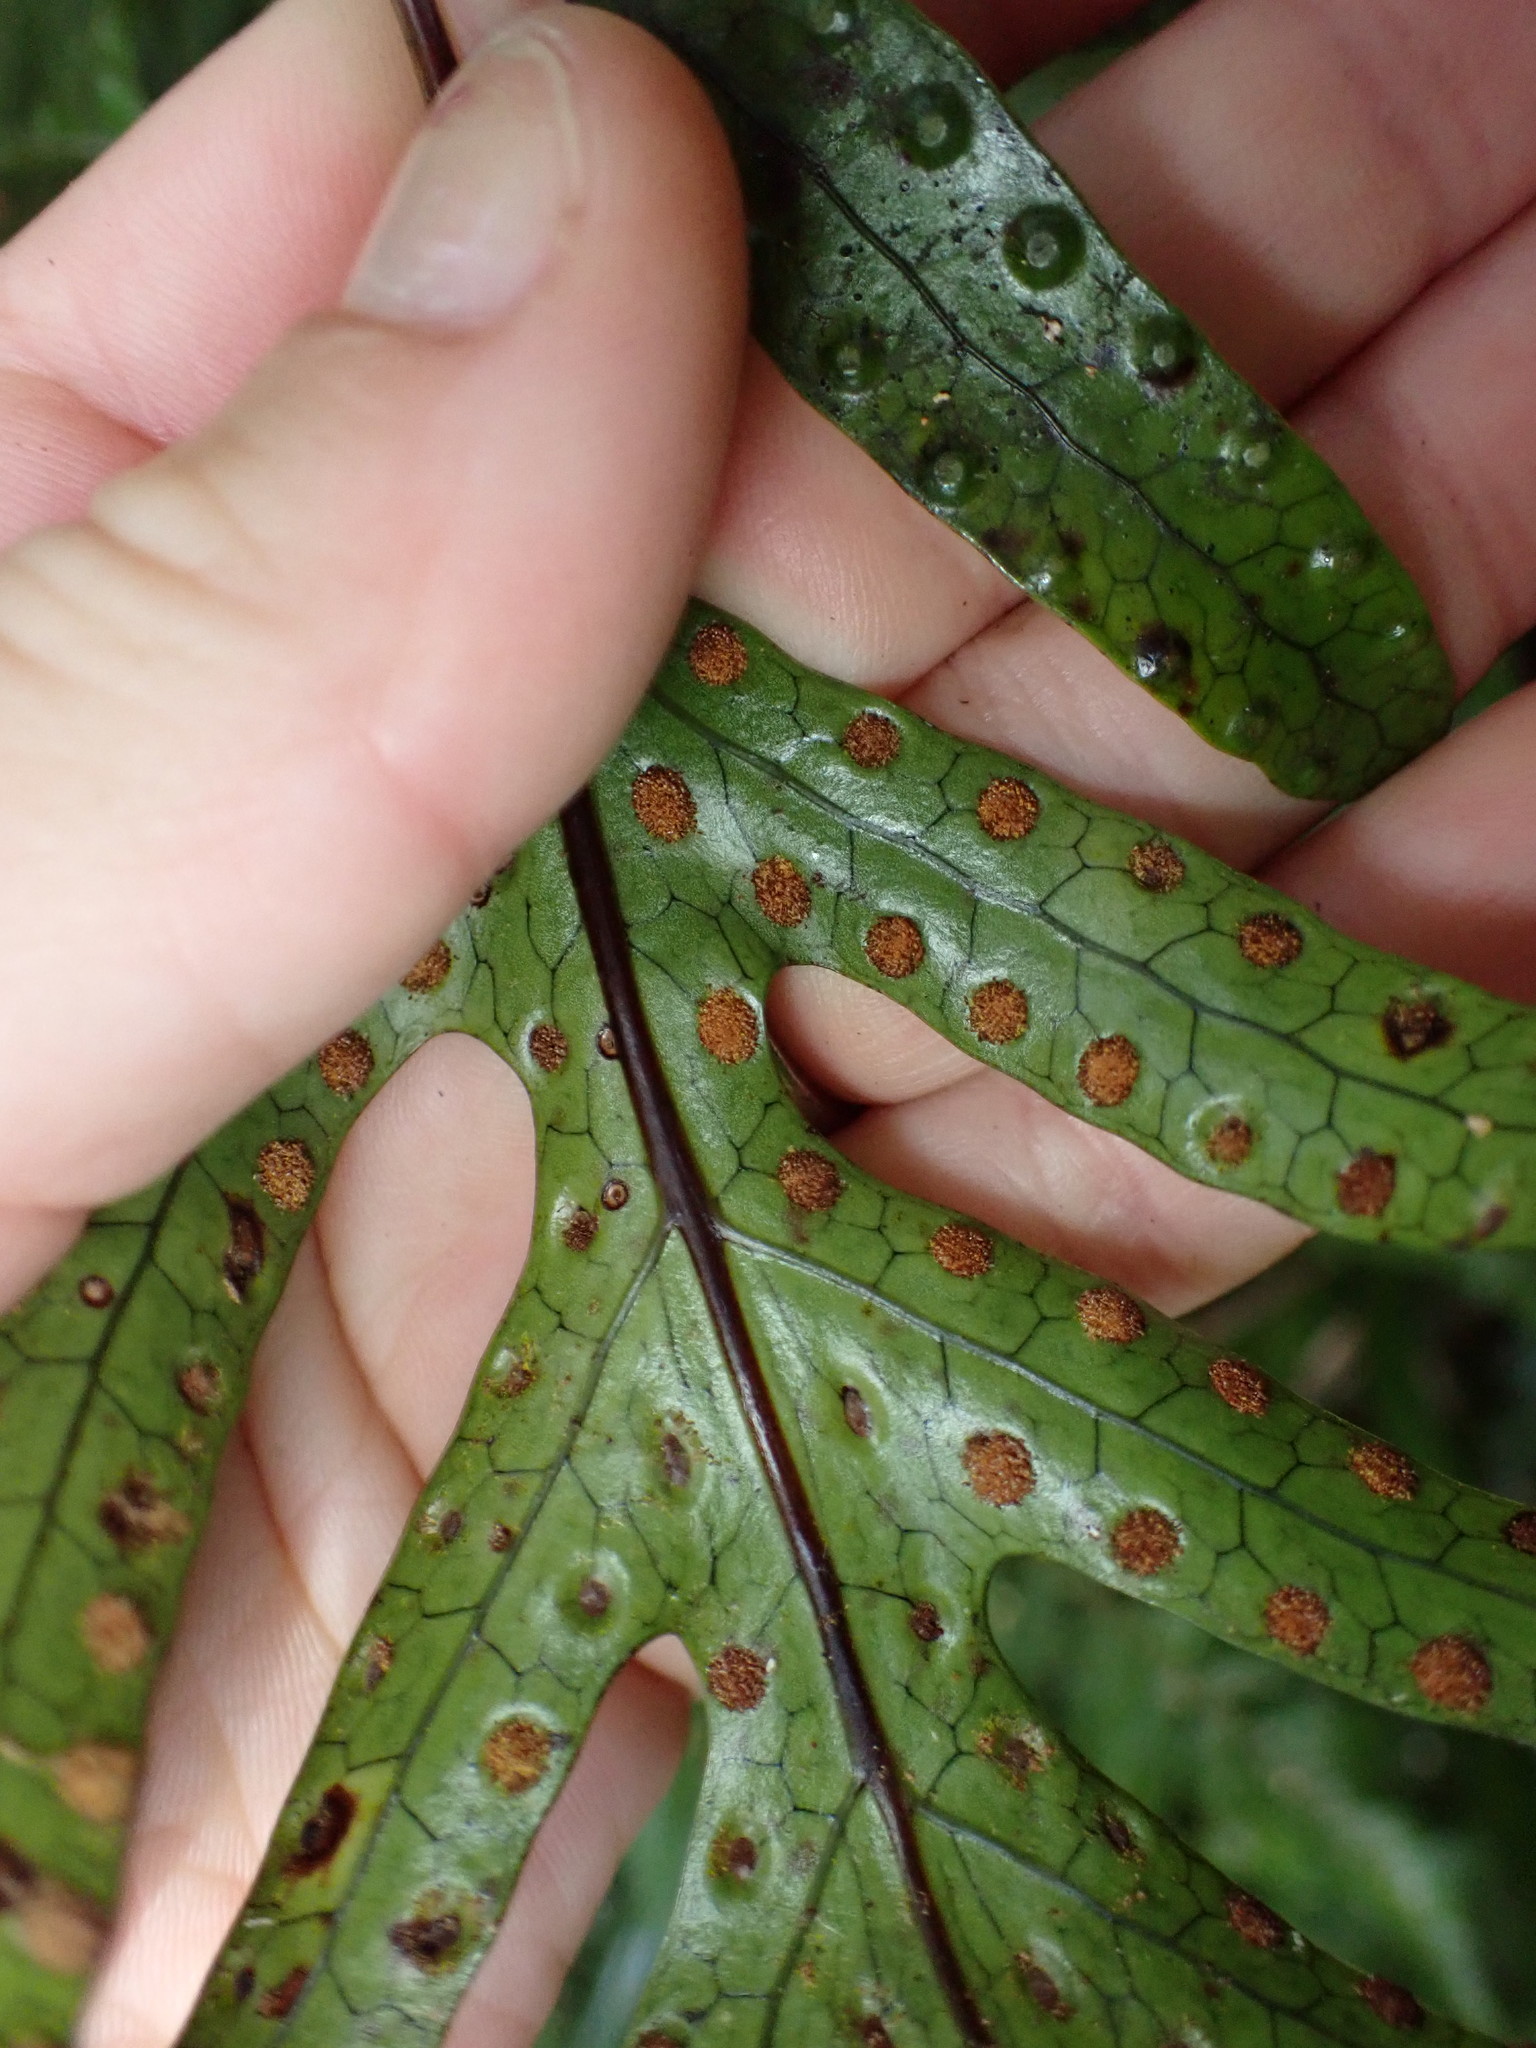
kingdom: Plantae
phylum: Tracheophyta
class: Polypodiopsida
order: Polypodiales
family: Polypodiaceae
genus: Lecanopteris
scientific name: Lecanopteris pustulata
